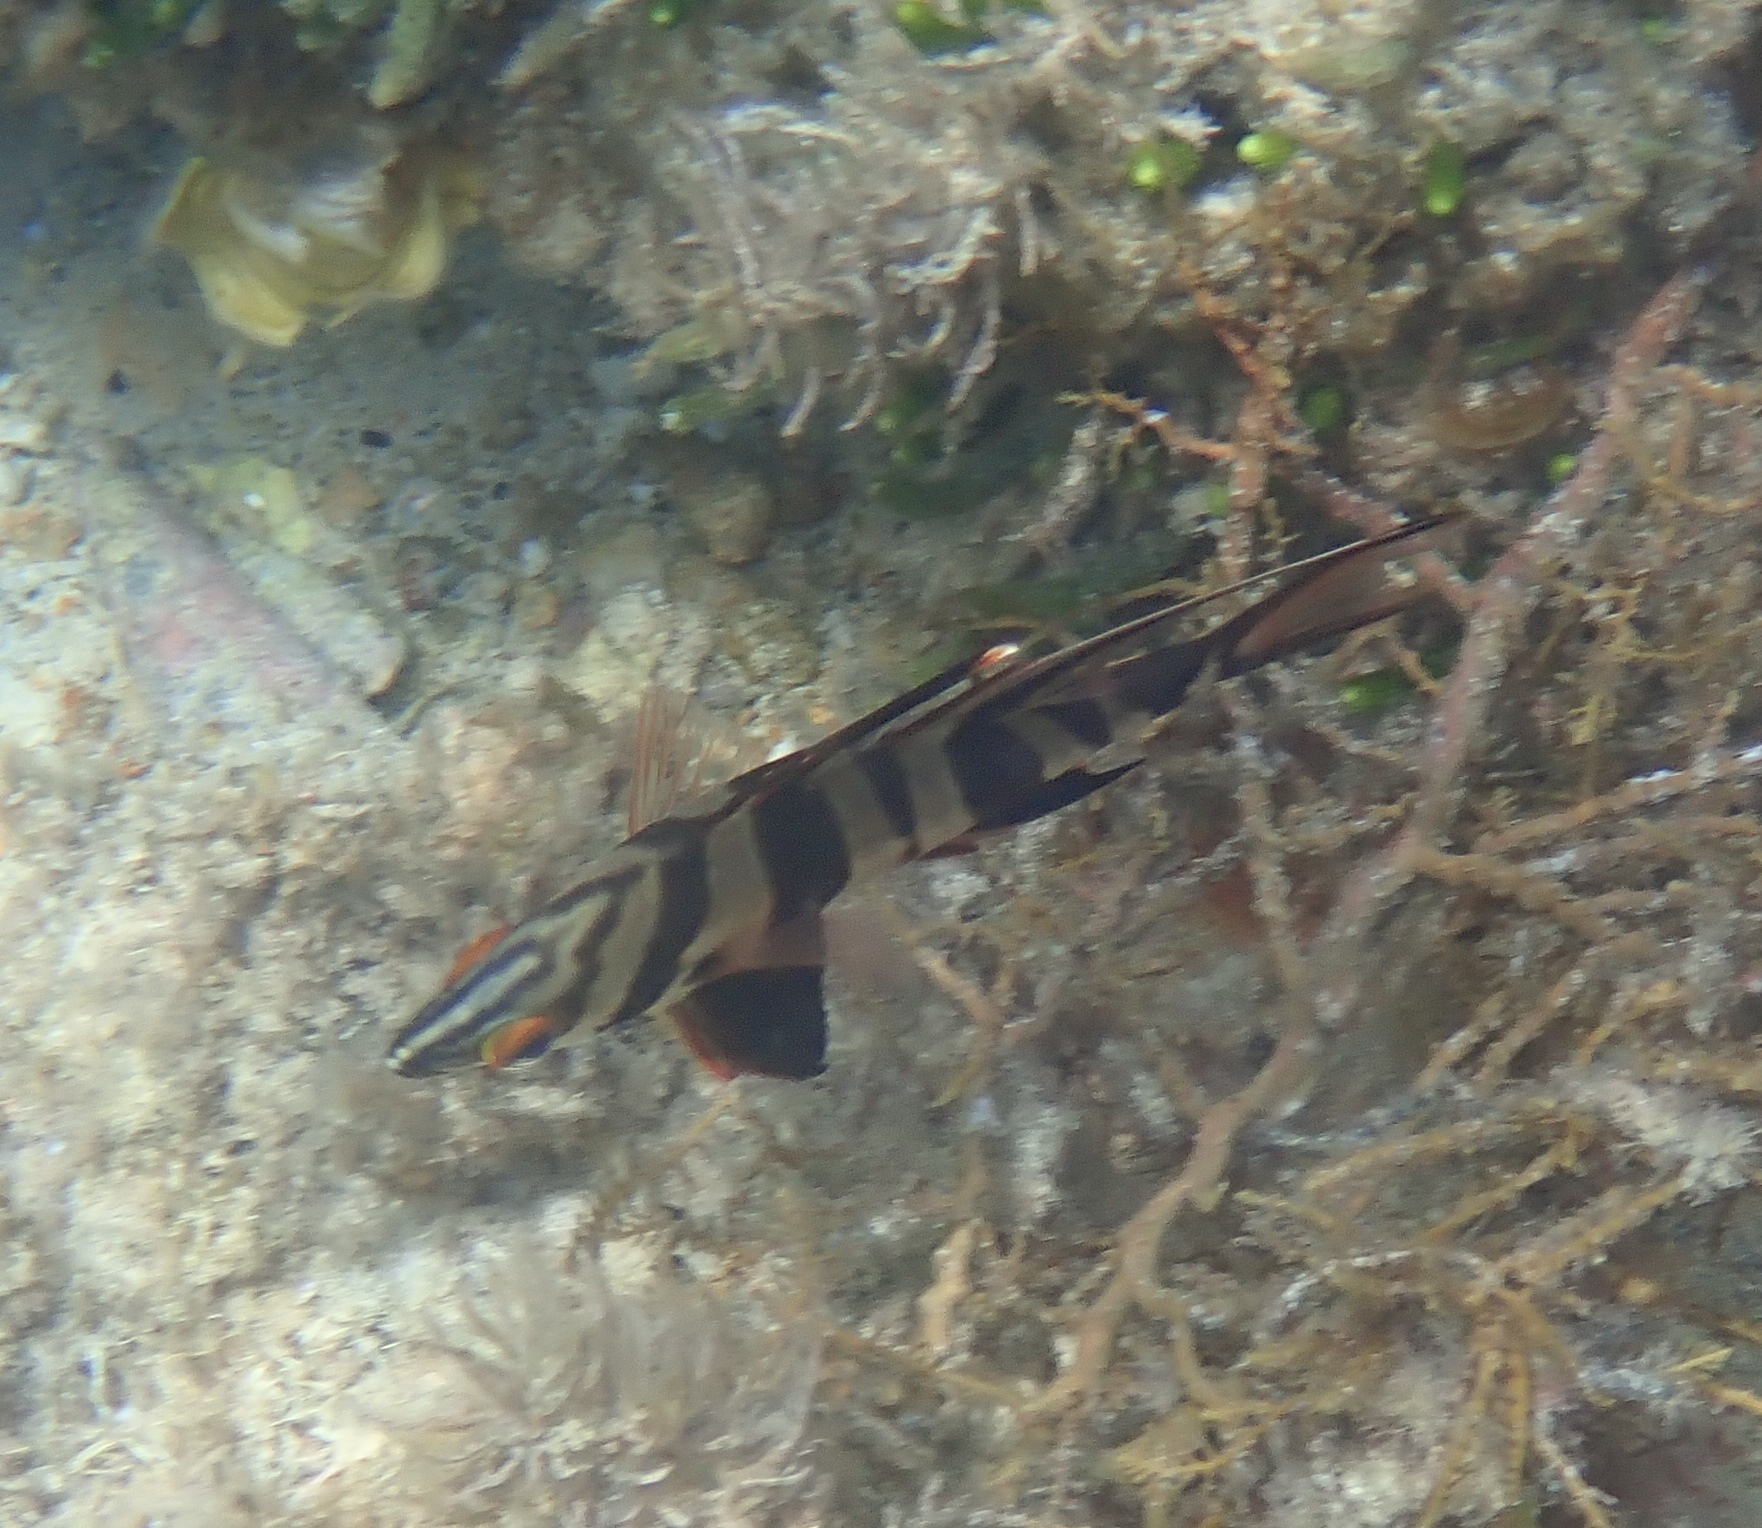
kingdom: Animalia
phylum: Chordata
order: Perciformes
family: Enoplosidae
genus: Enoplosus
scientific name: Enoplosus armatus
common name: Old wife
